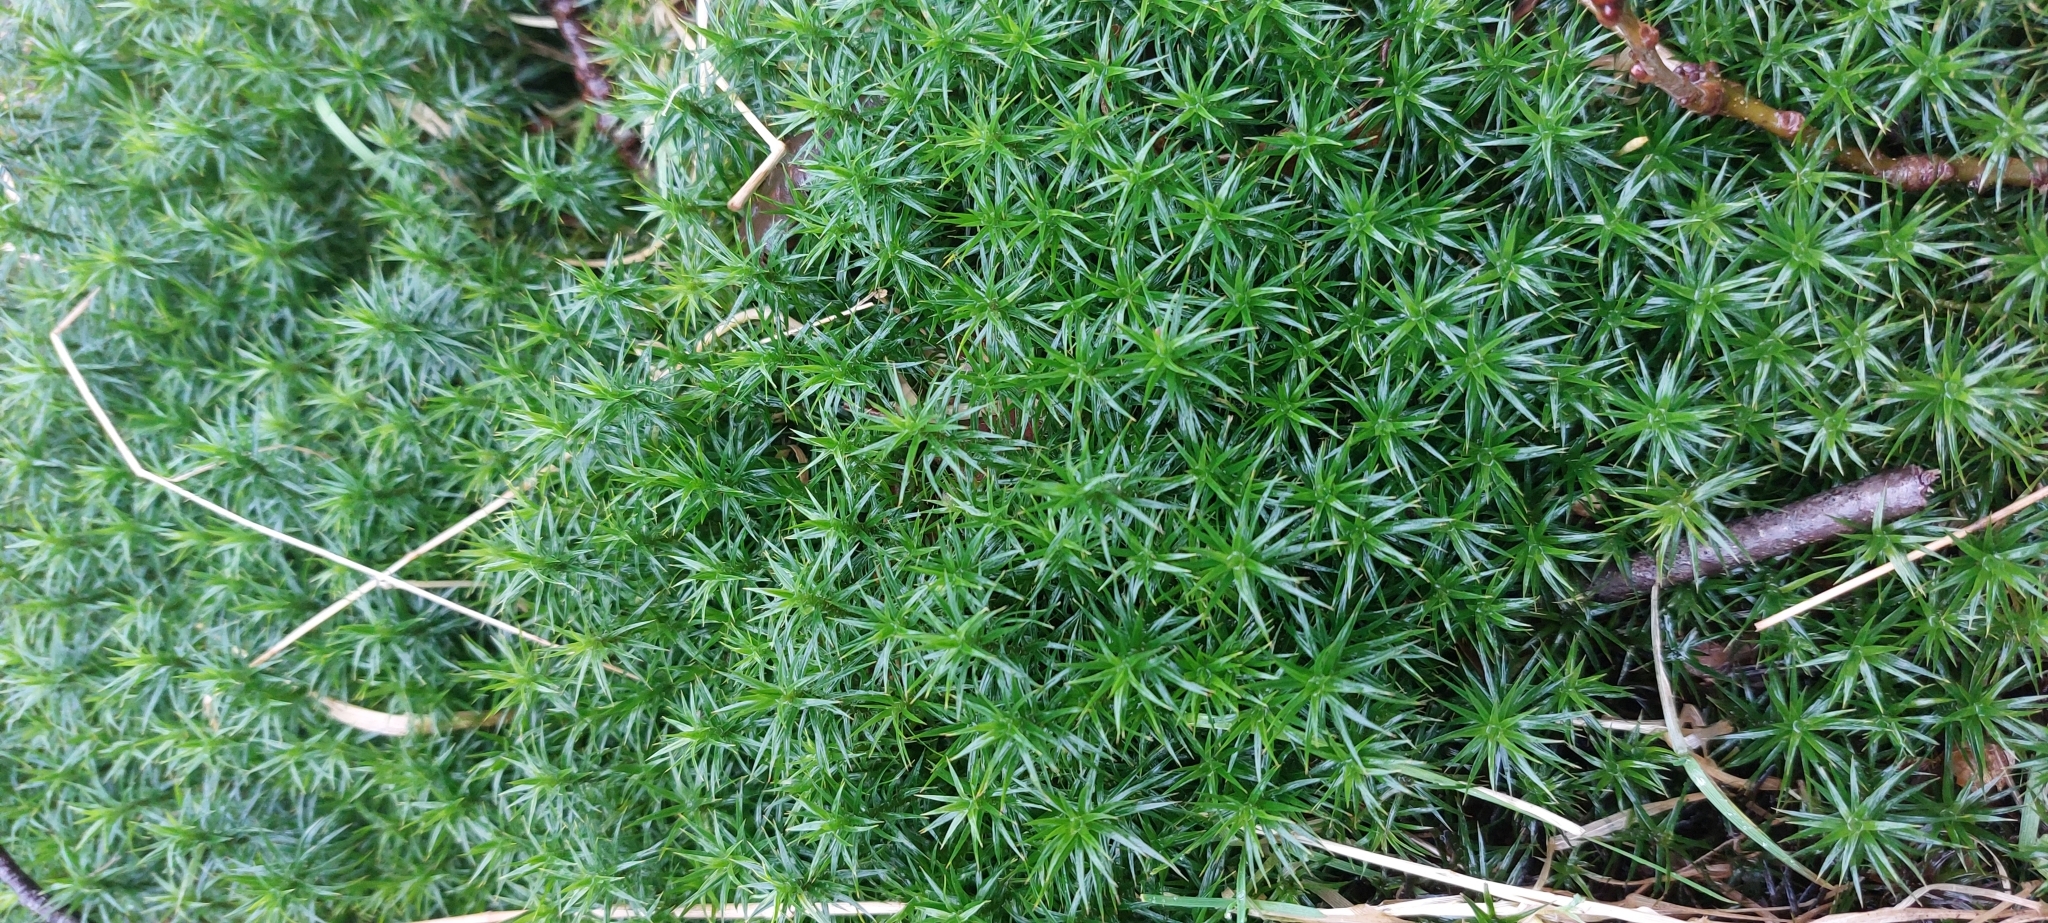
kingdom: Plantae
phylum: Bryophyta
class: Polytrichopsida
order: Polytrichales
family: Polytrichaceae
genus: Polytrichum
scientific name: Polytrichum formosum
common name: Bank haircap moss
